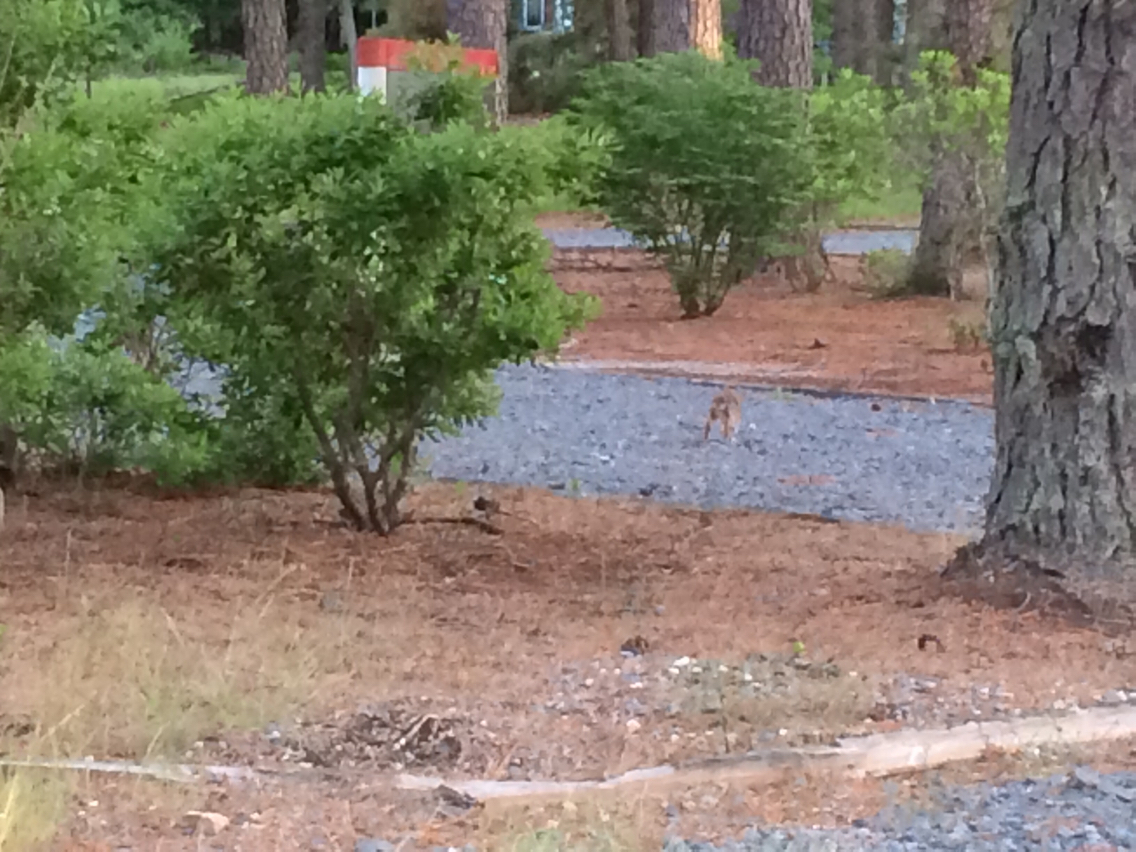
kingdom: Animalia
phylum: Chordata
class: Mammalia
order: Lagomorpha
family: Leporidae
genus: Sylvilagus
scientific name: Sylvilagus floridanus
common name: Eastern cottontail
